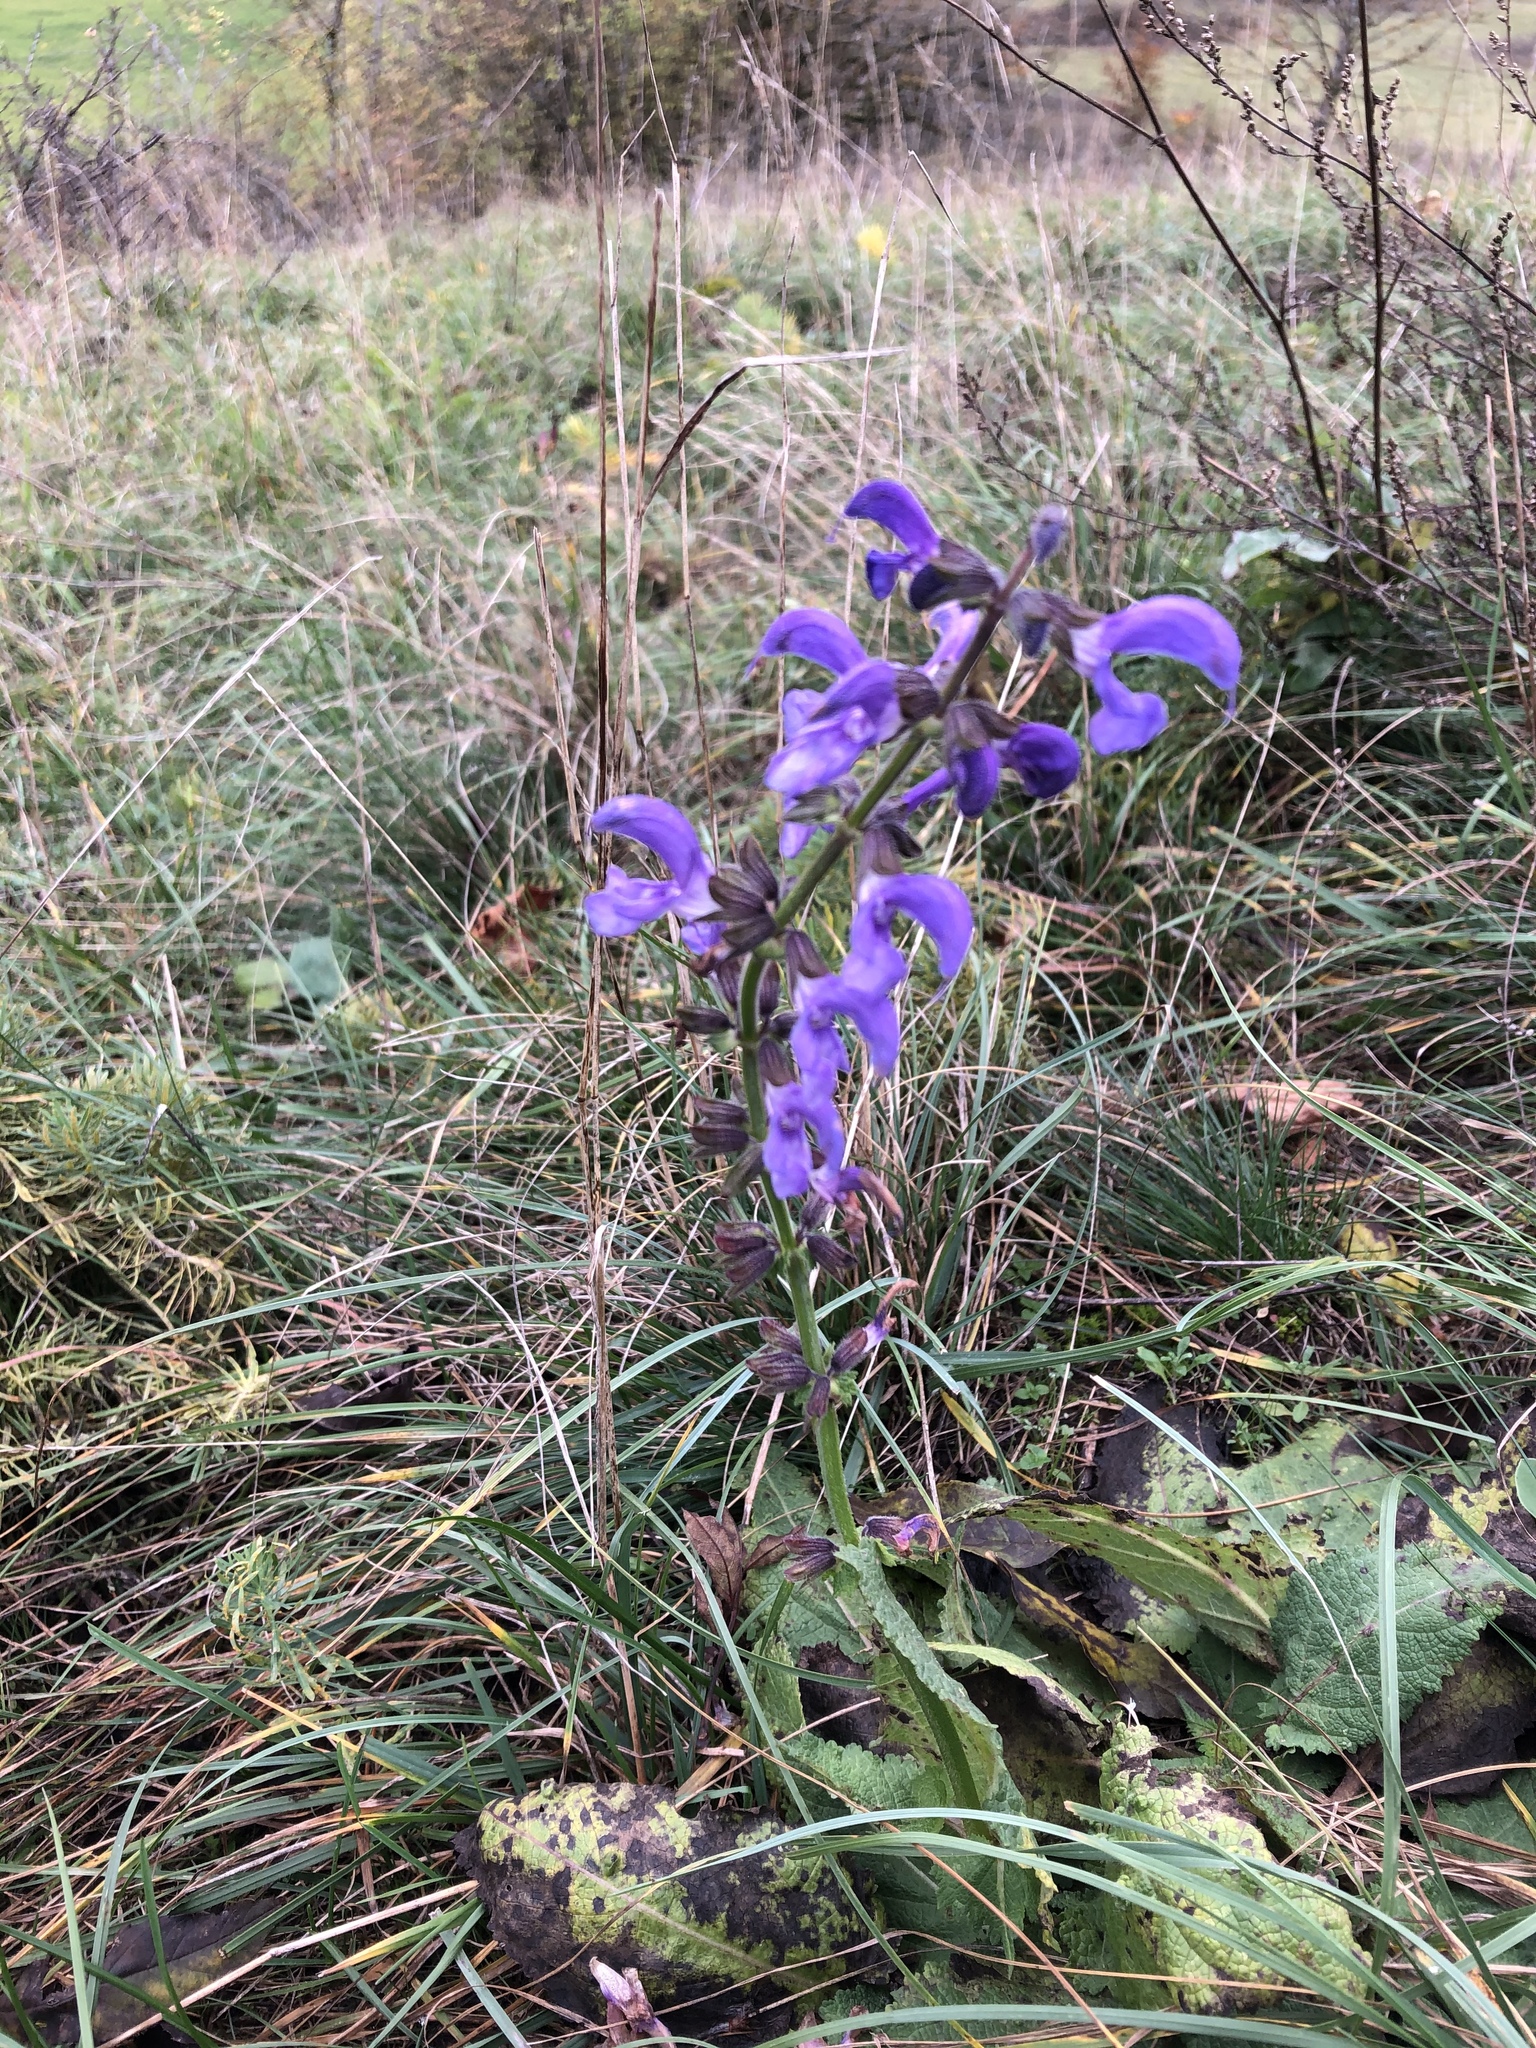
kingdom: Plantae
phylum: Tracheophyta
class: Magnoliopsida
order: Lamiales
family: Lamiaceae
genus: Salvia
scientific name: Salvia pratensis
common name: Meadow sage
